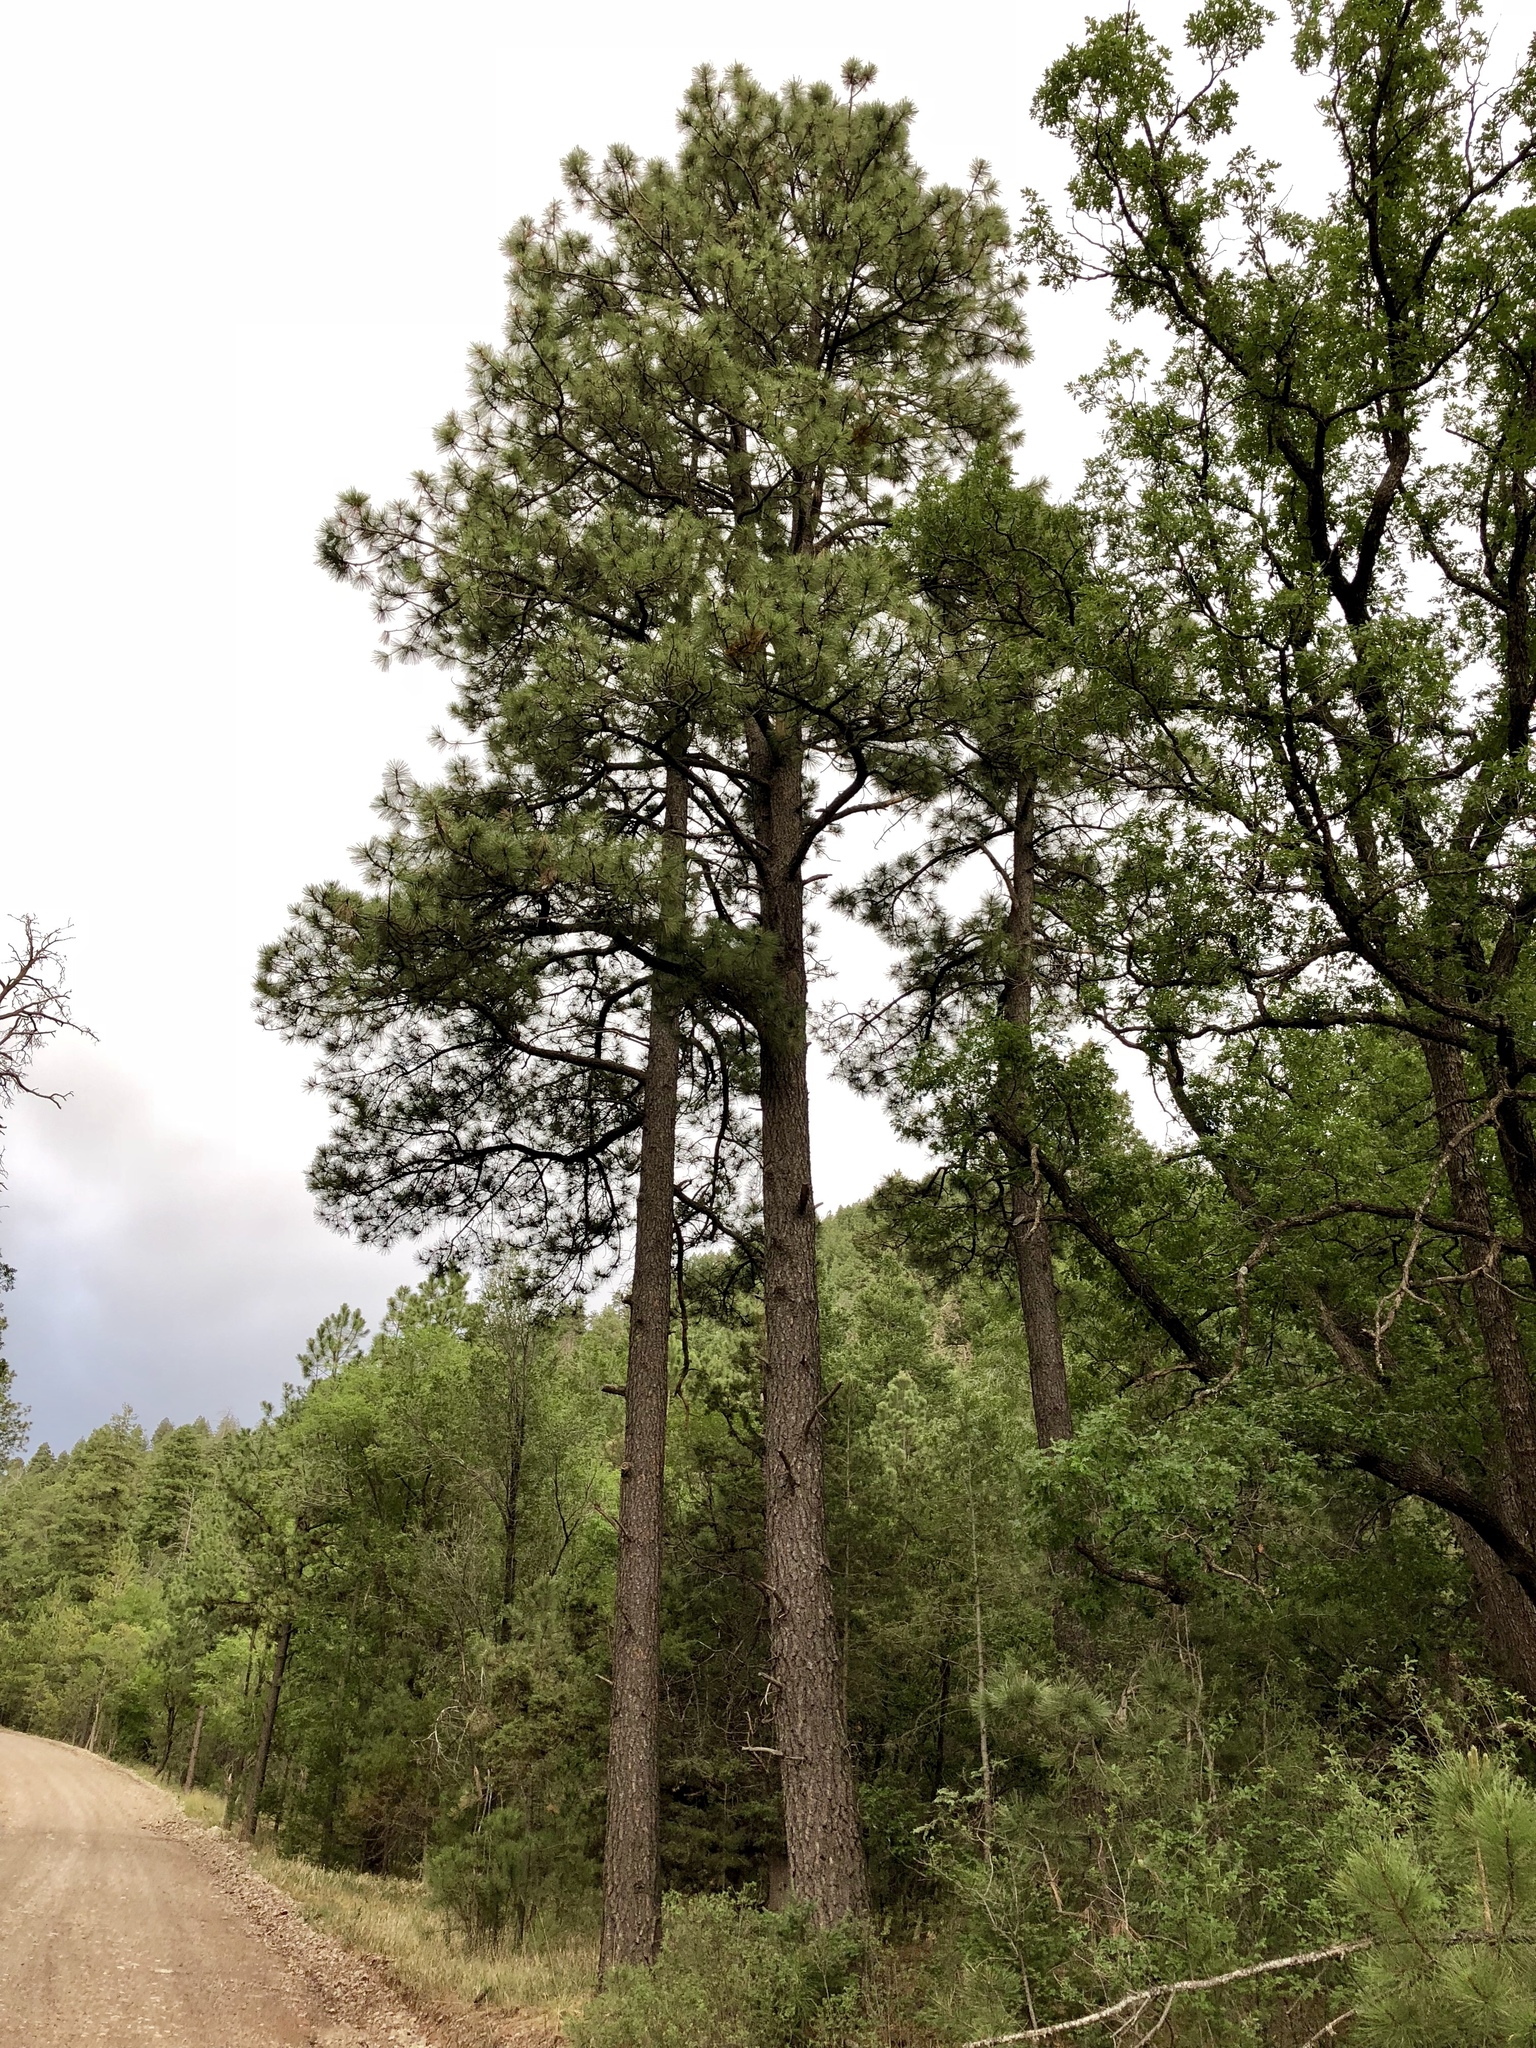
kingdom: Plantae
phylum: Tracheophyta
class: Pinopsida
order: Pinales
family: Pinaceae
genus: Pinus
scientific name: Pinus ponderosa
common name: Western yellow-pine
